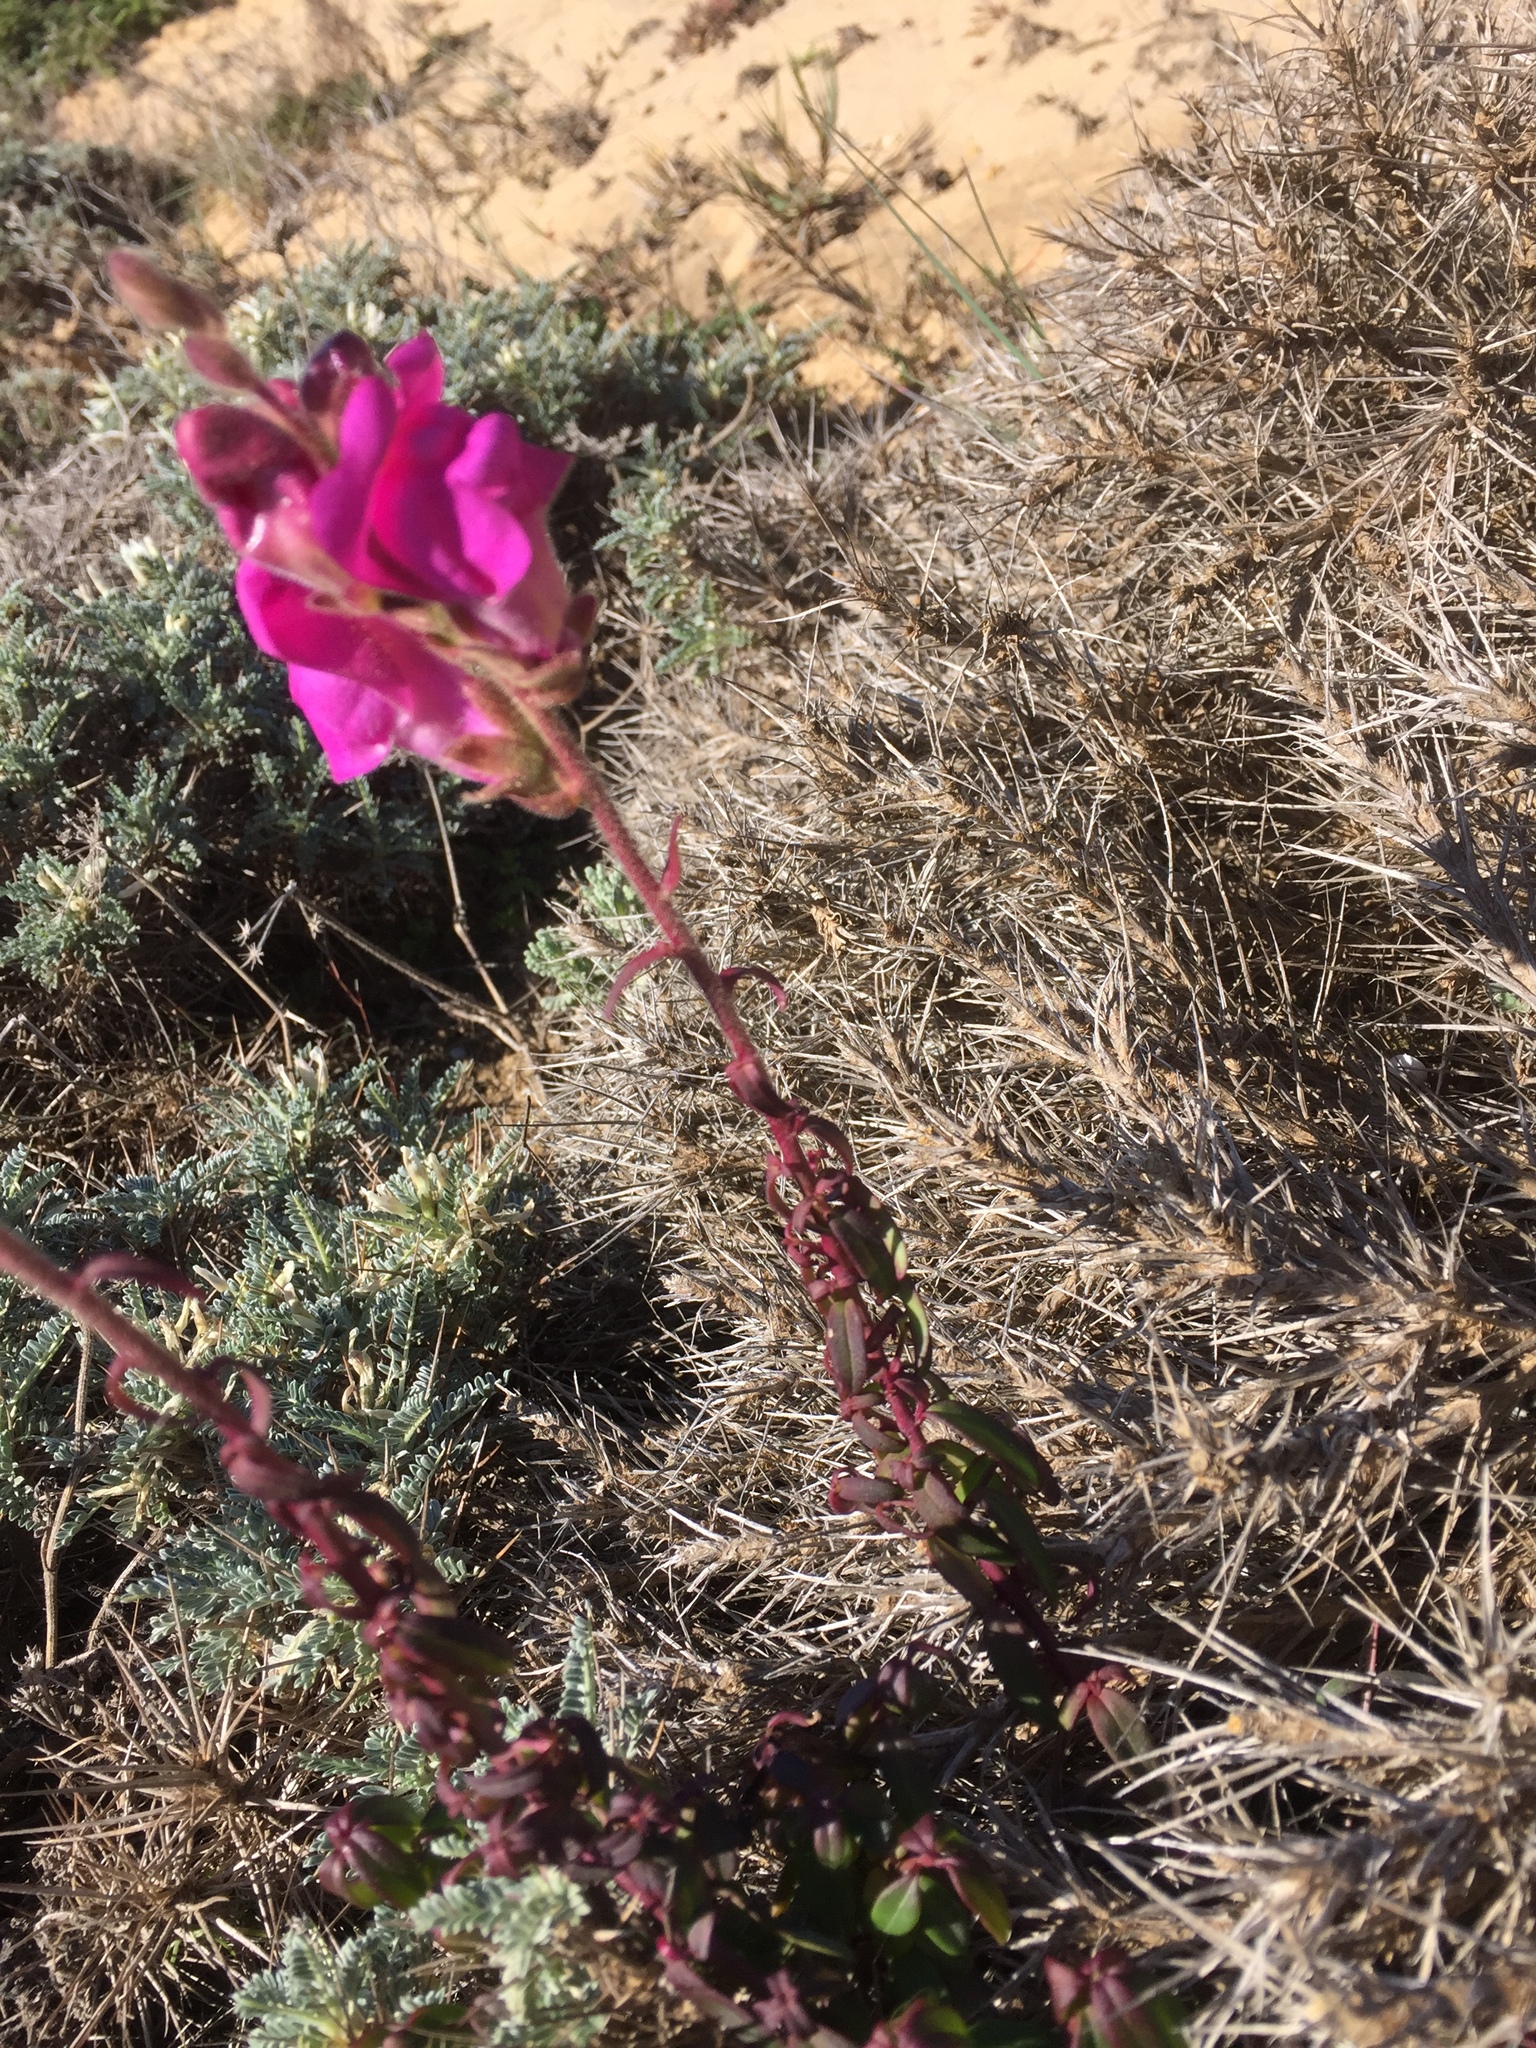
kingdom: Plantae
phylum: Tracheophyta
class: Magnoliopsida
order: Lamiales
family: Plantaginaceae
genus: Antirrhinum
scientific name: Antirrhinum cirrhigerum
